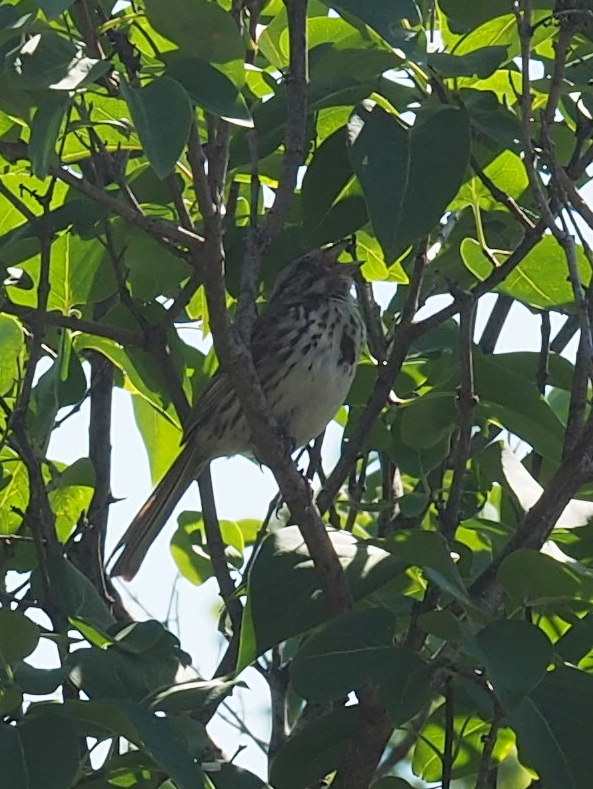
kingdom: Animalia
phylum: Chordata
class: Aves
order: Passeriformes
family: Passerellidae
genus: Melospiza
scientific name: Melospiza melodia
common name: Song sparrow
